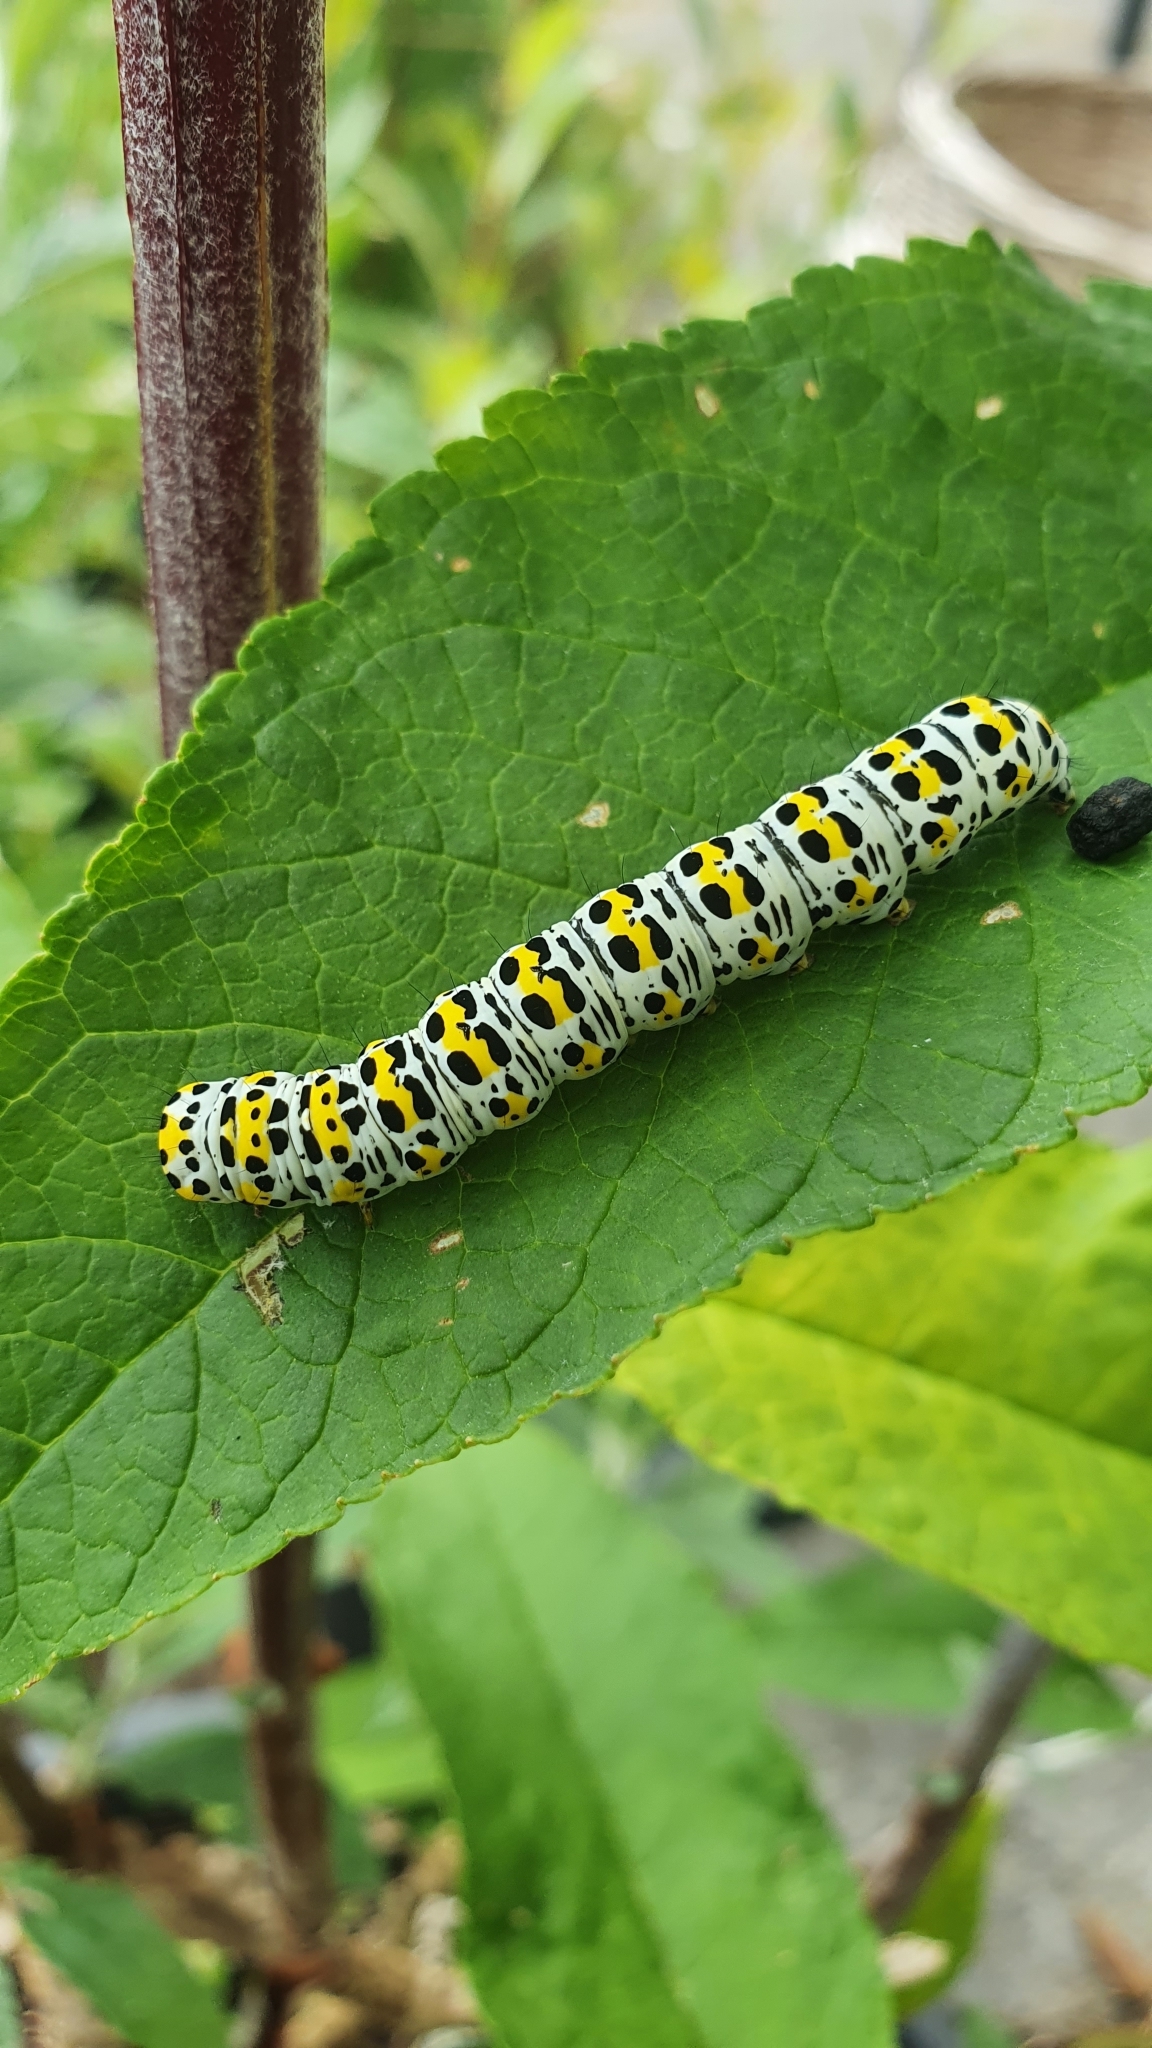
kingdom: Animalia
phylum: Arthropoda
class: Insecta
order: Lepidoptera
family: Noctuidae
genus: Cucullia
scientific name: Cucullia verbasci
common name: Mullein
